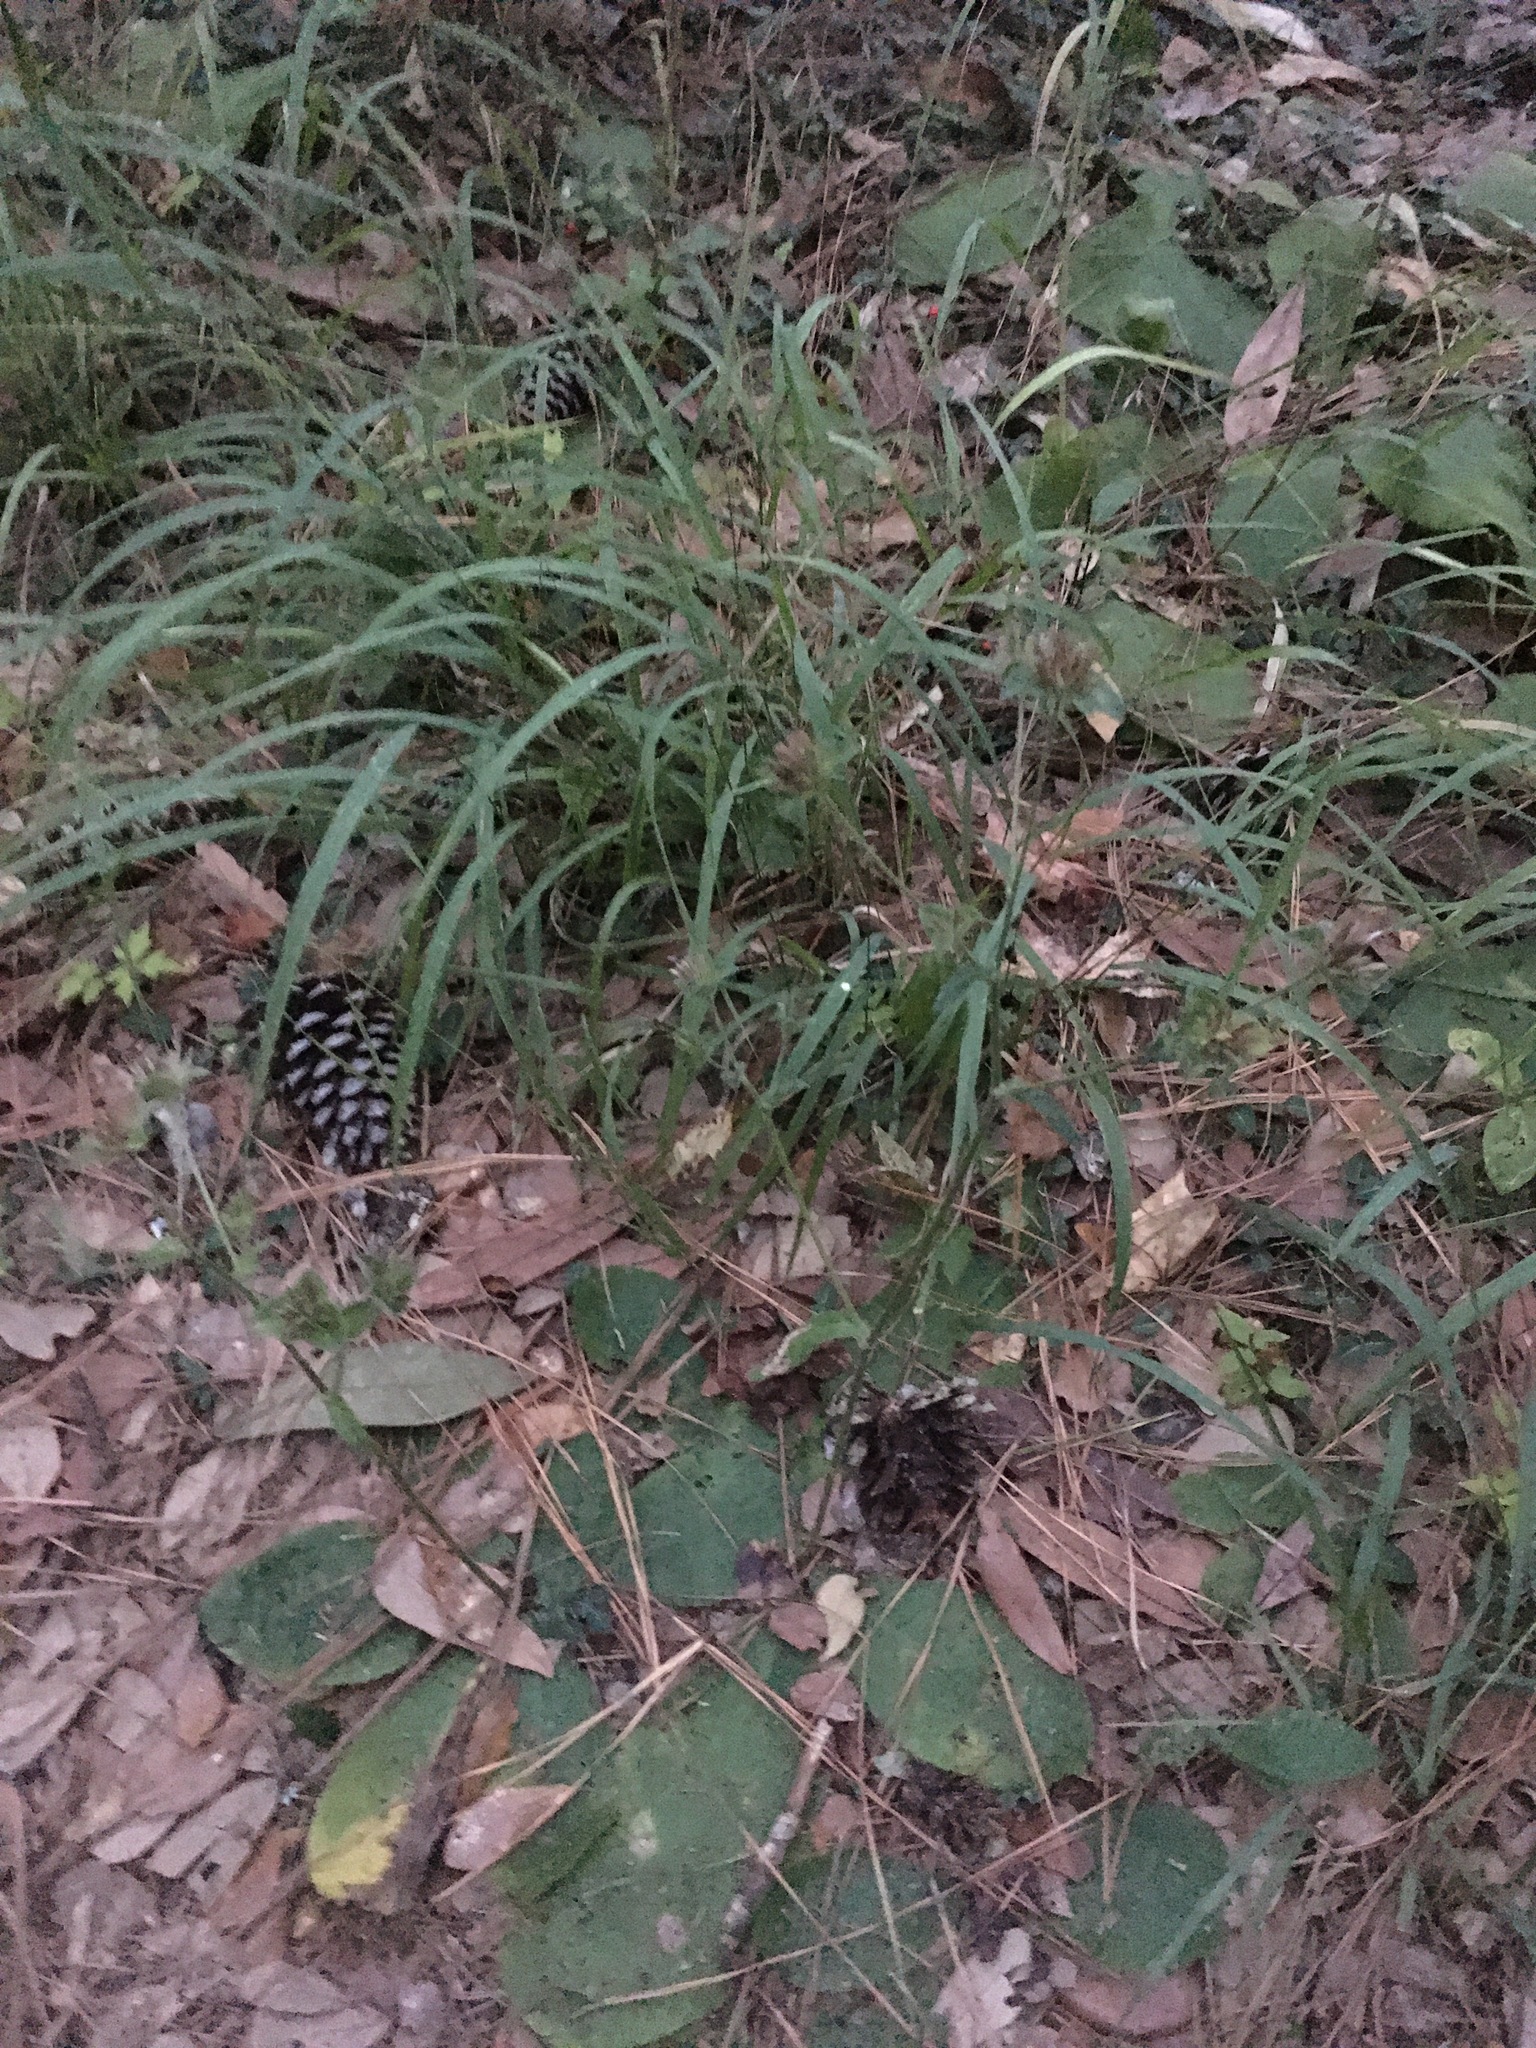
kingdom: Plantae
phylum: Tracheophyta
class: Magnoliopsida
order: Asterales
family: Asteraceae
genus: Elephantopus
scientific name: Elephantopus tomentosus
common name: Tobacco-weed
